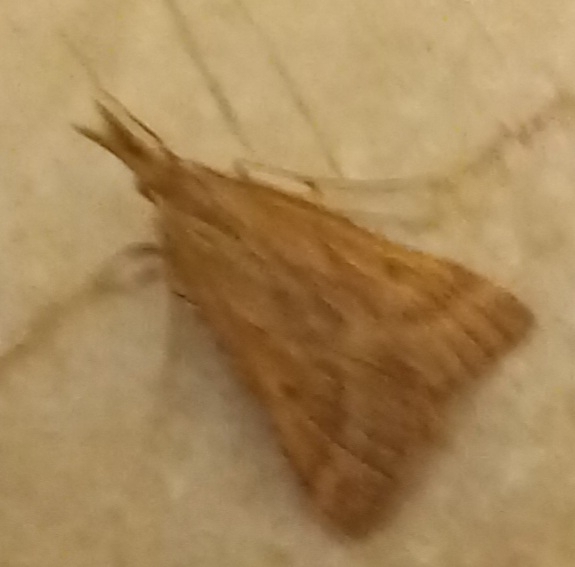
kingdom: Animalia
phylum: Arthropoda
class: Insecta
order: Lepidoptera
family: Pyralidae
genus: Synaphe
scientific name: Synaphe punctalis
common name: Long-legged tabby
